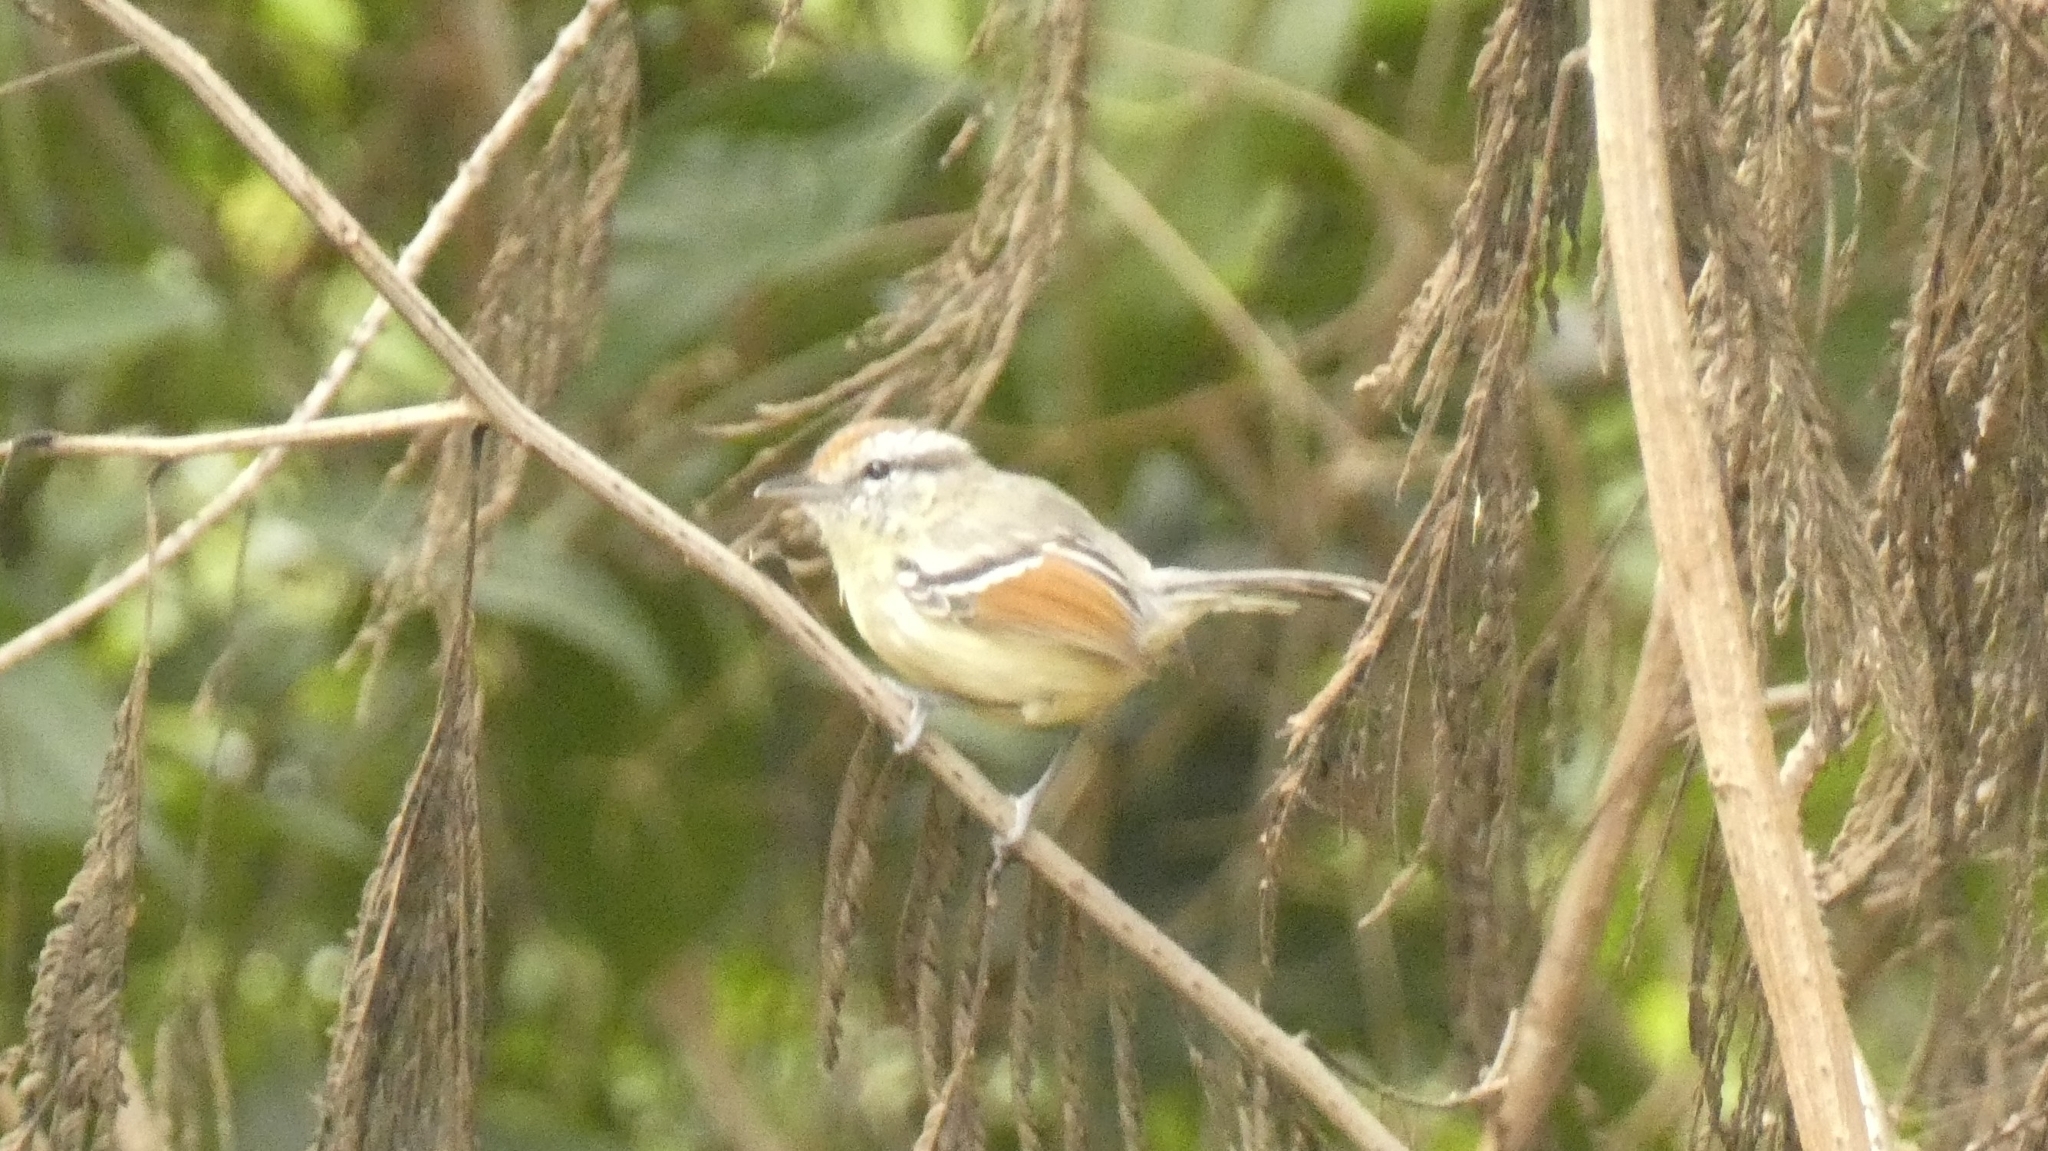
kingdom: Animalia
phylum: Chordata
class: Aves
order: Passeriformes
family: Thamnophilidae
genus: Herpsilochmus
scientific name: Herpsilochmus rufimarginatus
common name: Rufous-winged antwren
